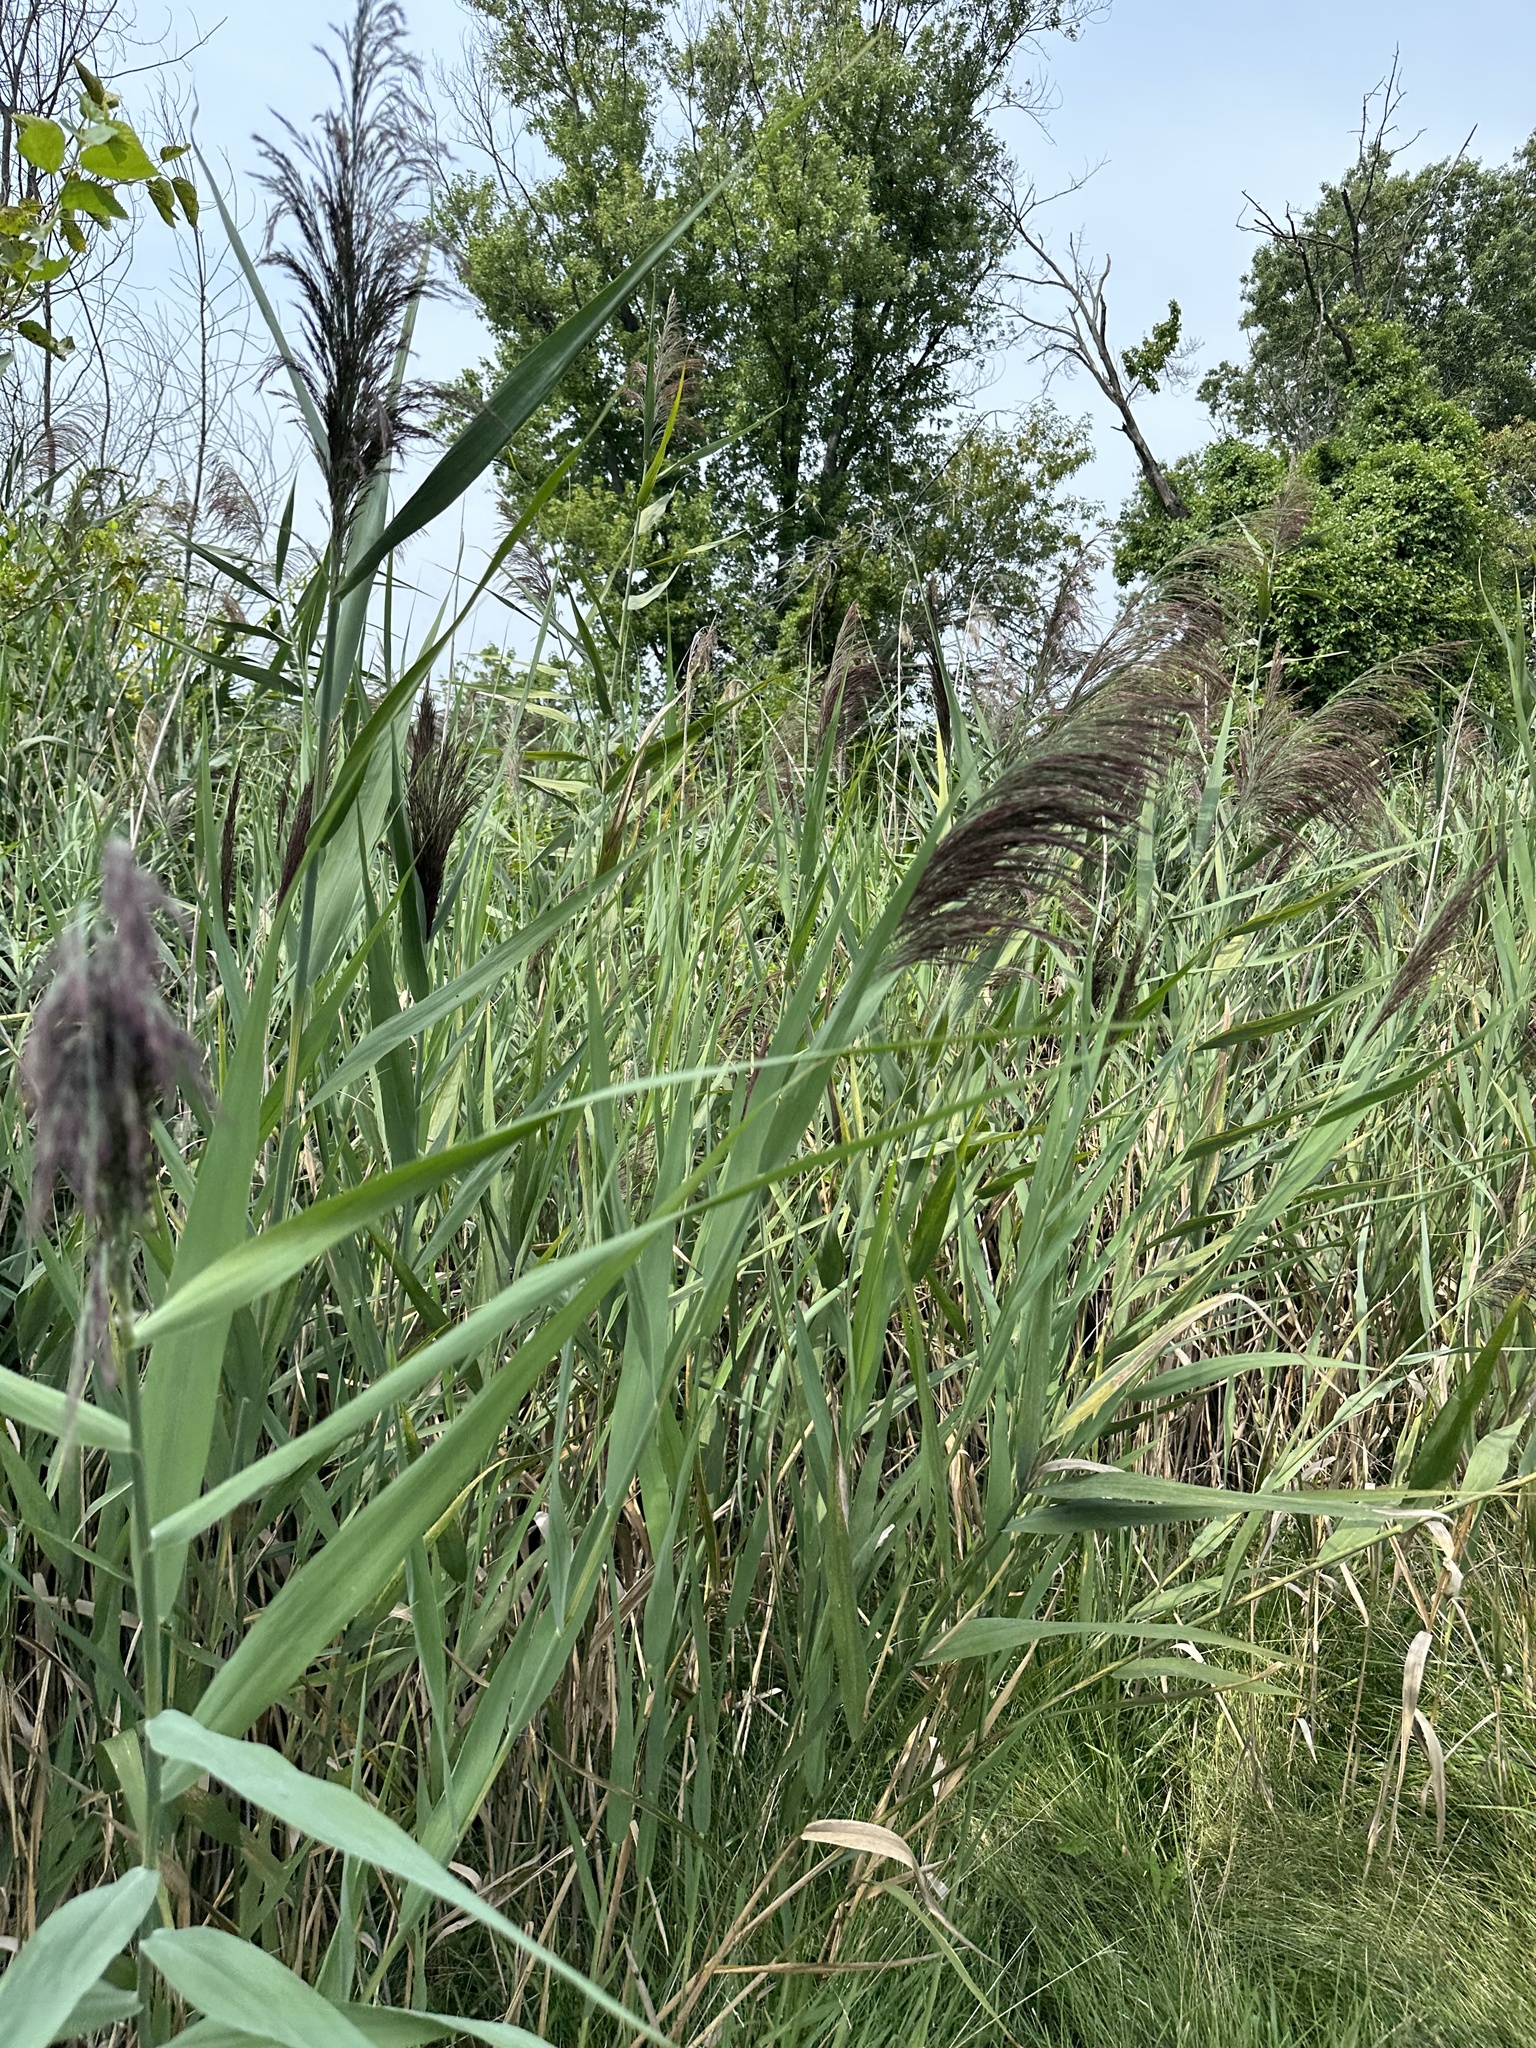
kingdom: Plantae
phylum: Tracheophyta
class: Liliopsida
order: Poales
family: Poaceae
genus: Phragmites
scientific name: Phragmites australis
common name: Common reed
